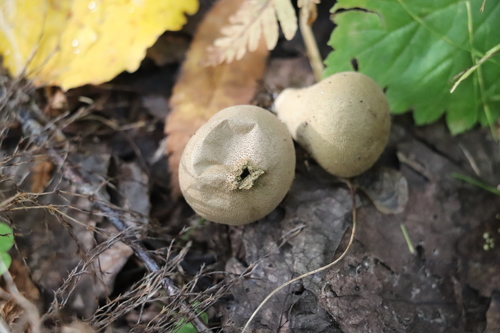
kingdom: Fungi
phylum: Basidiomycota
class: Agaricomycetes
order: Agaricales
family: Lycoperdaceae
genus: Lycoperdon
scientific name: Lycoperdon
